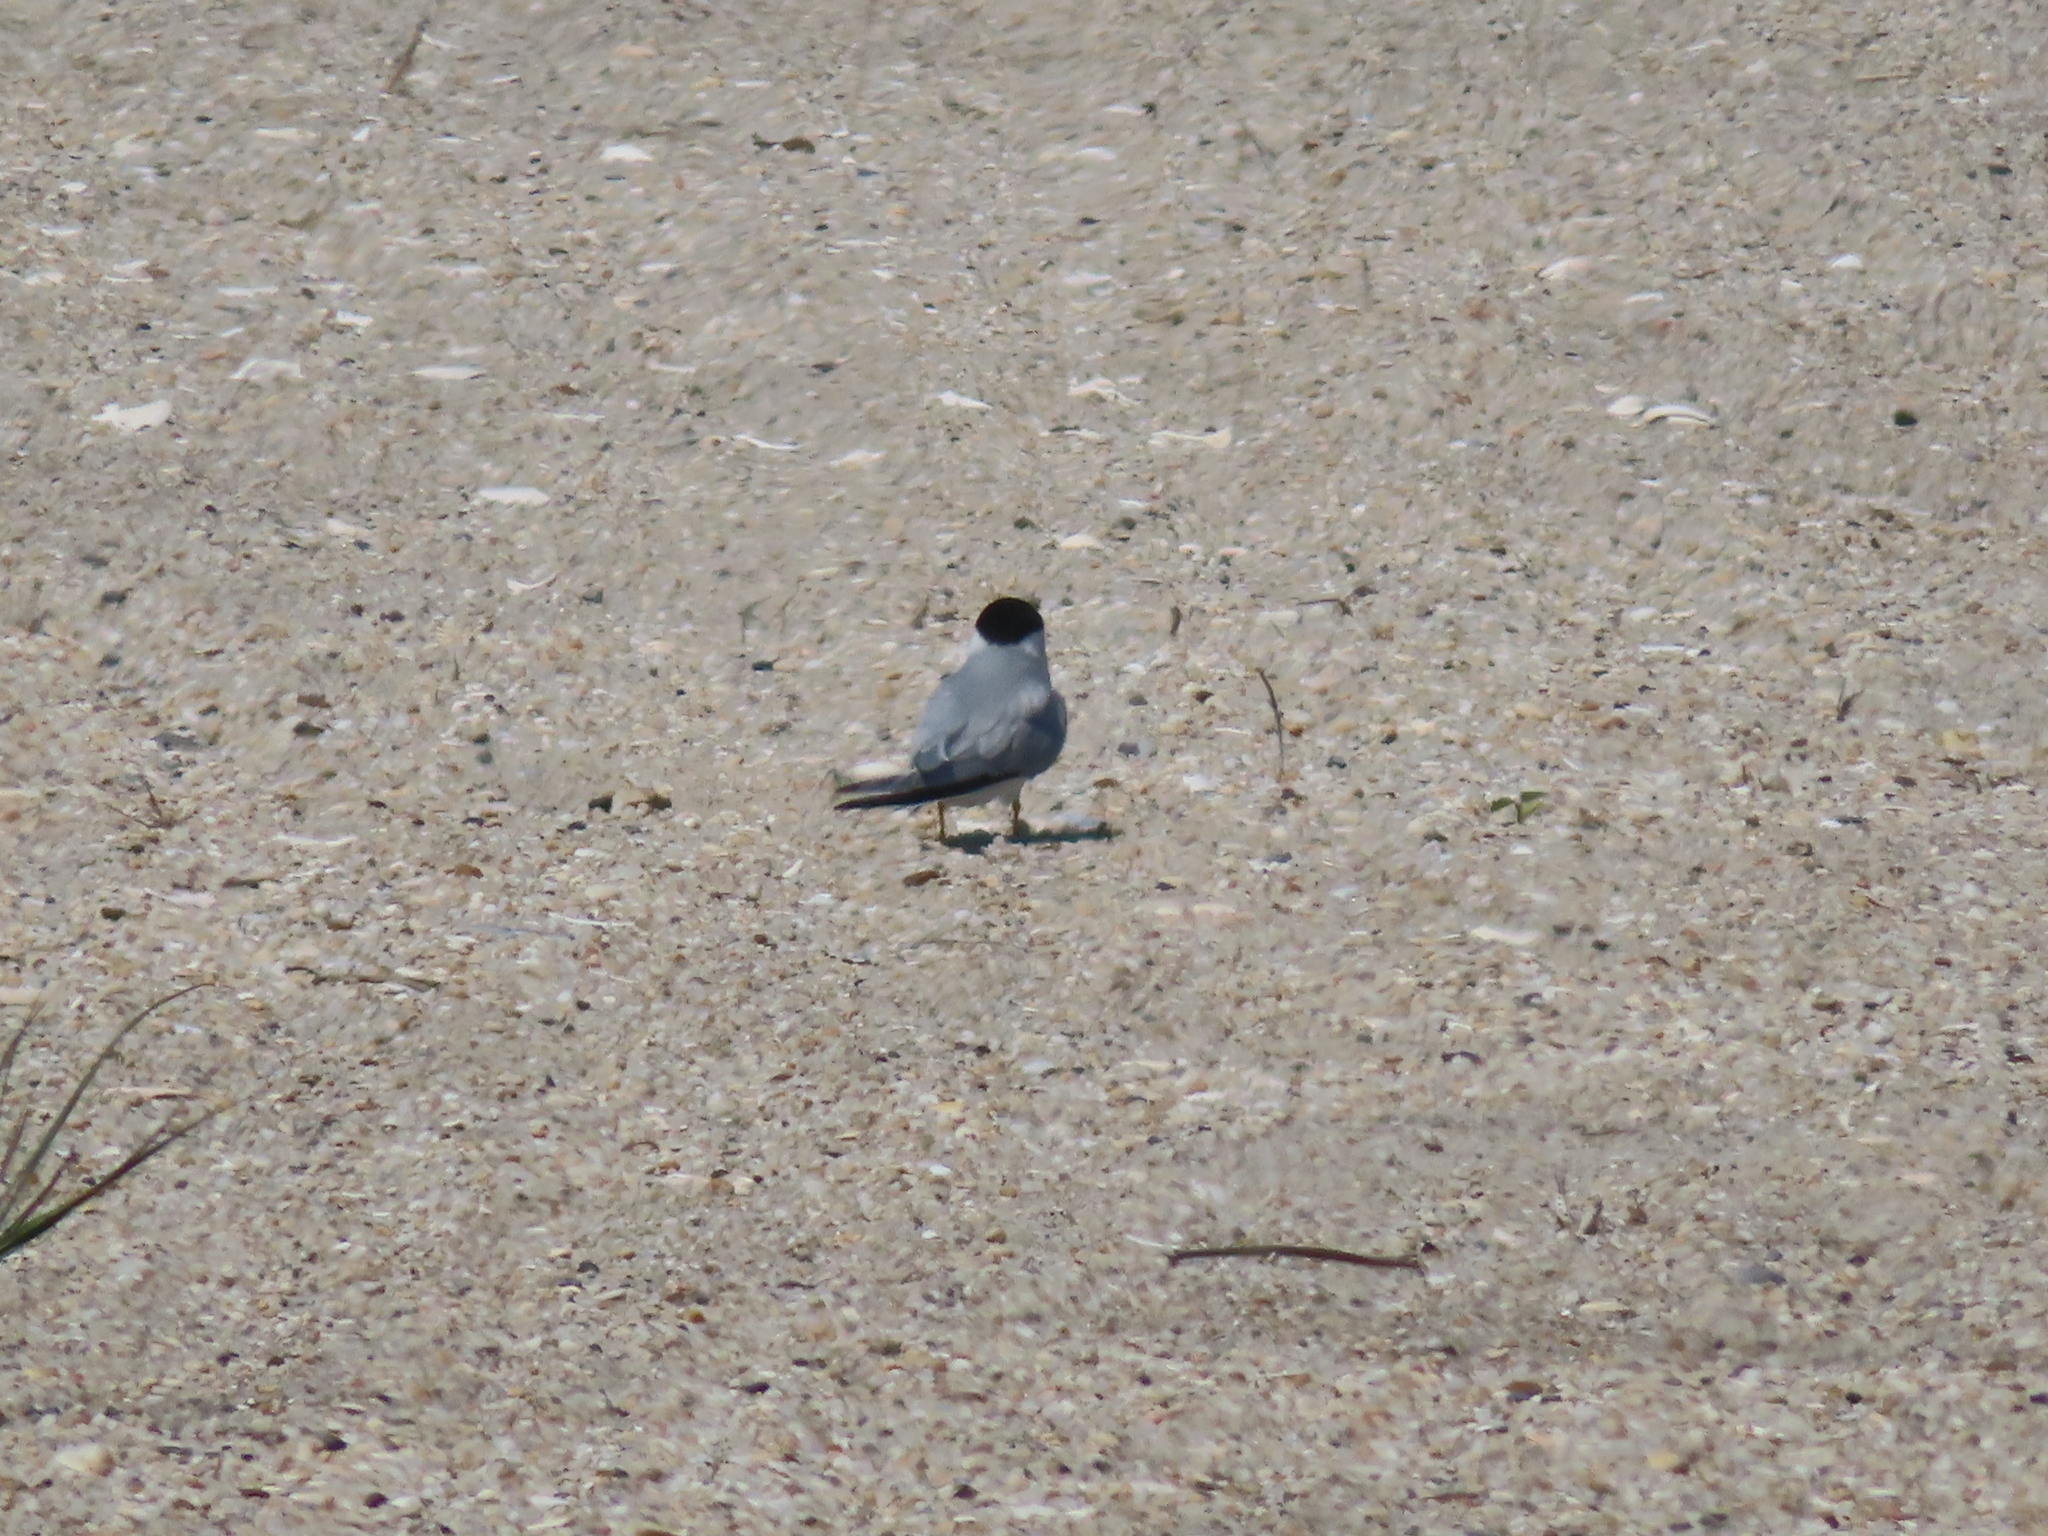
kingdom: Animalia
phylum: Chordata
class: Aves
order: Charadriiformes
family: Laridae
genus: Sternula
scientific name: Sternula antillarum
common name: Least tern
